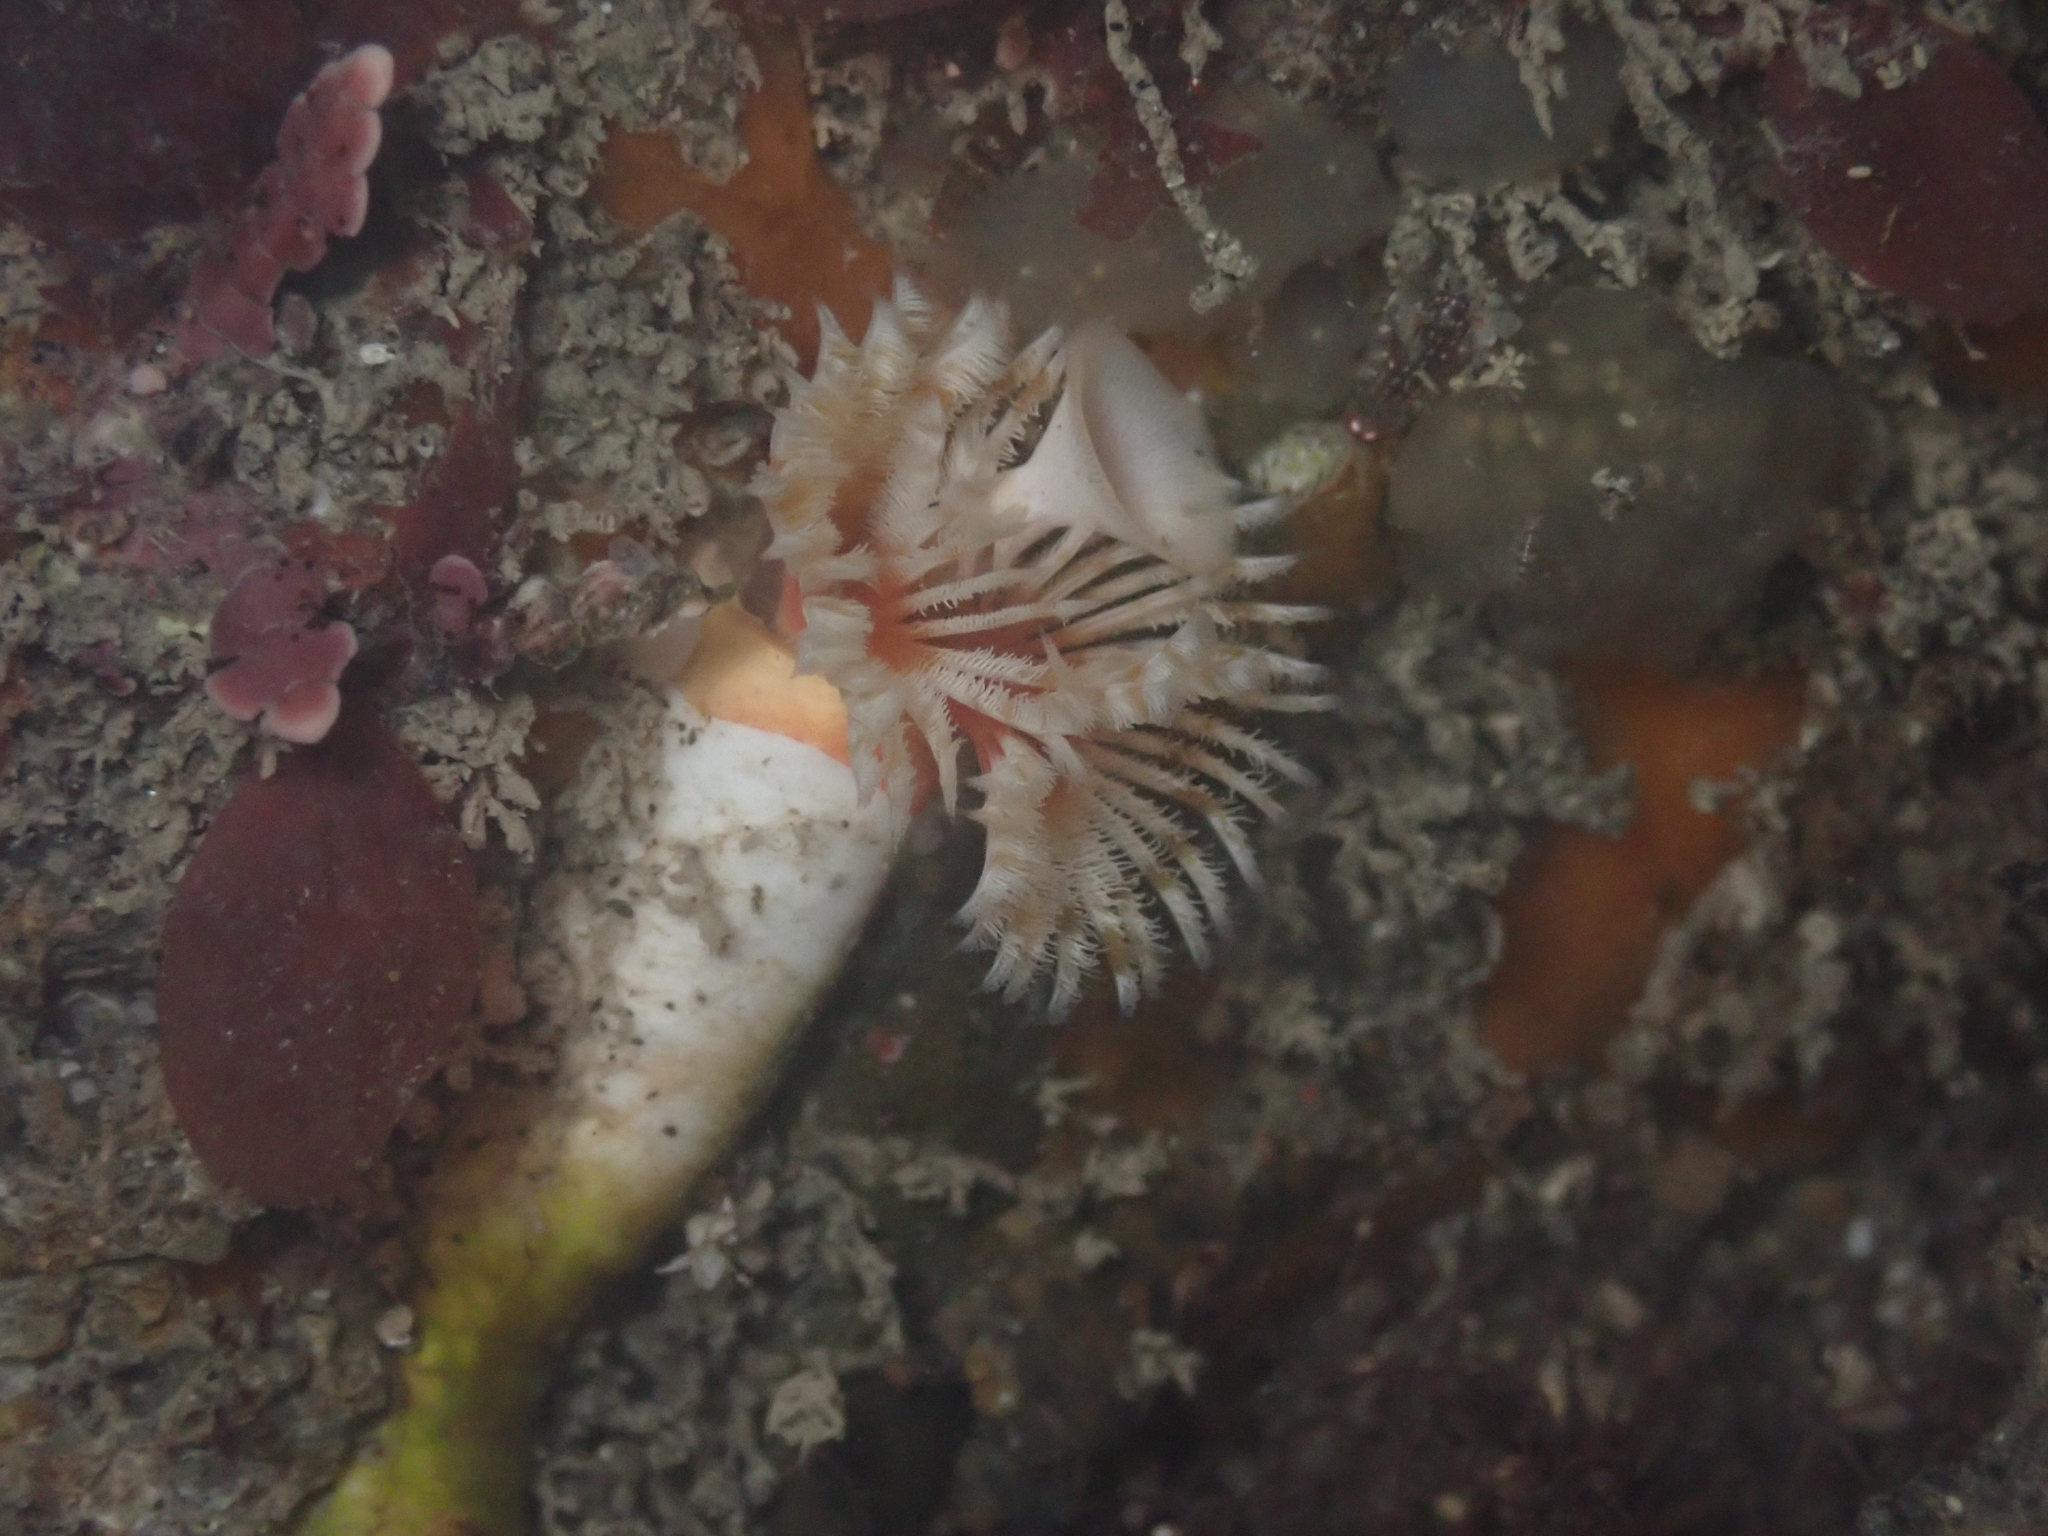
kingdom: Animalia
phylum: Annelida
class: Polychaeta
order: Sabellida
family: Serpulidae
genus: Serpula
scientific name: Serpula columbiana
